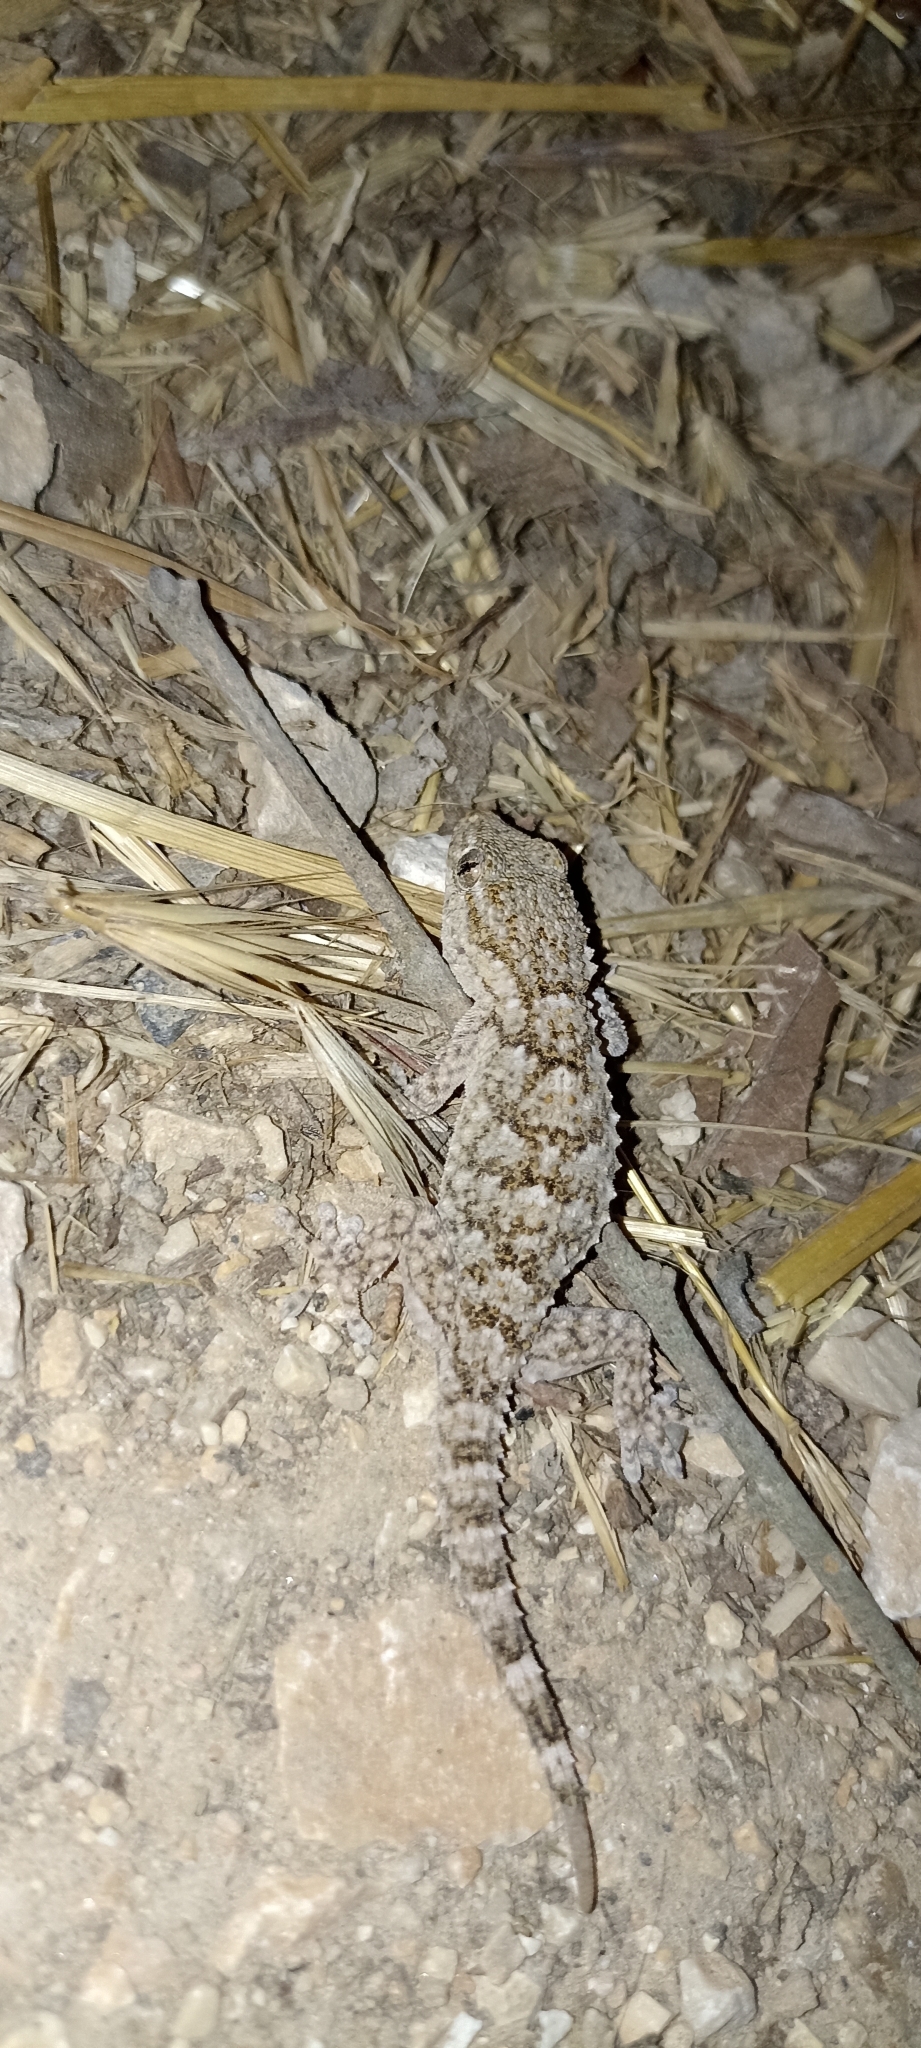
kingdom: Animalia
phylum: Chordata
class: Squamata
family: Phyllodactylidae
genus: Tarentola
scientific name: Tarentola mauritanica
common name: Moorish gecko
